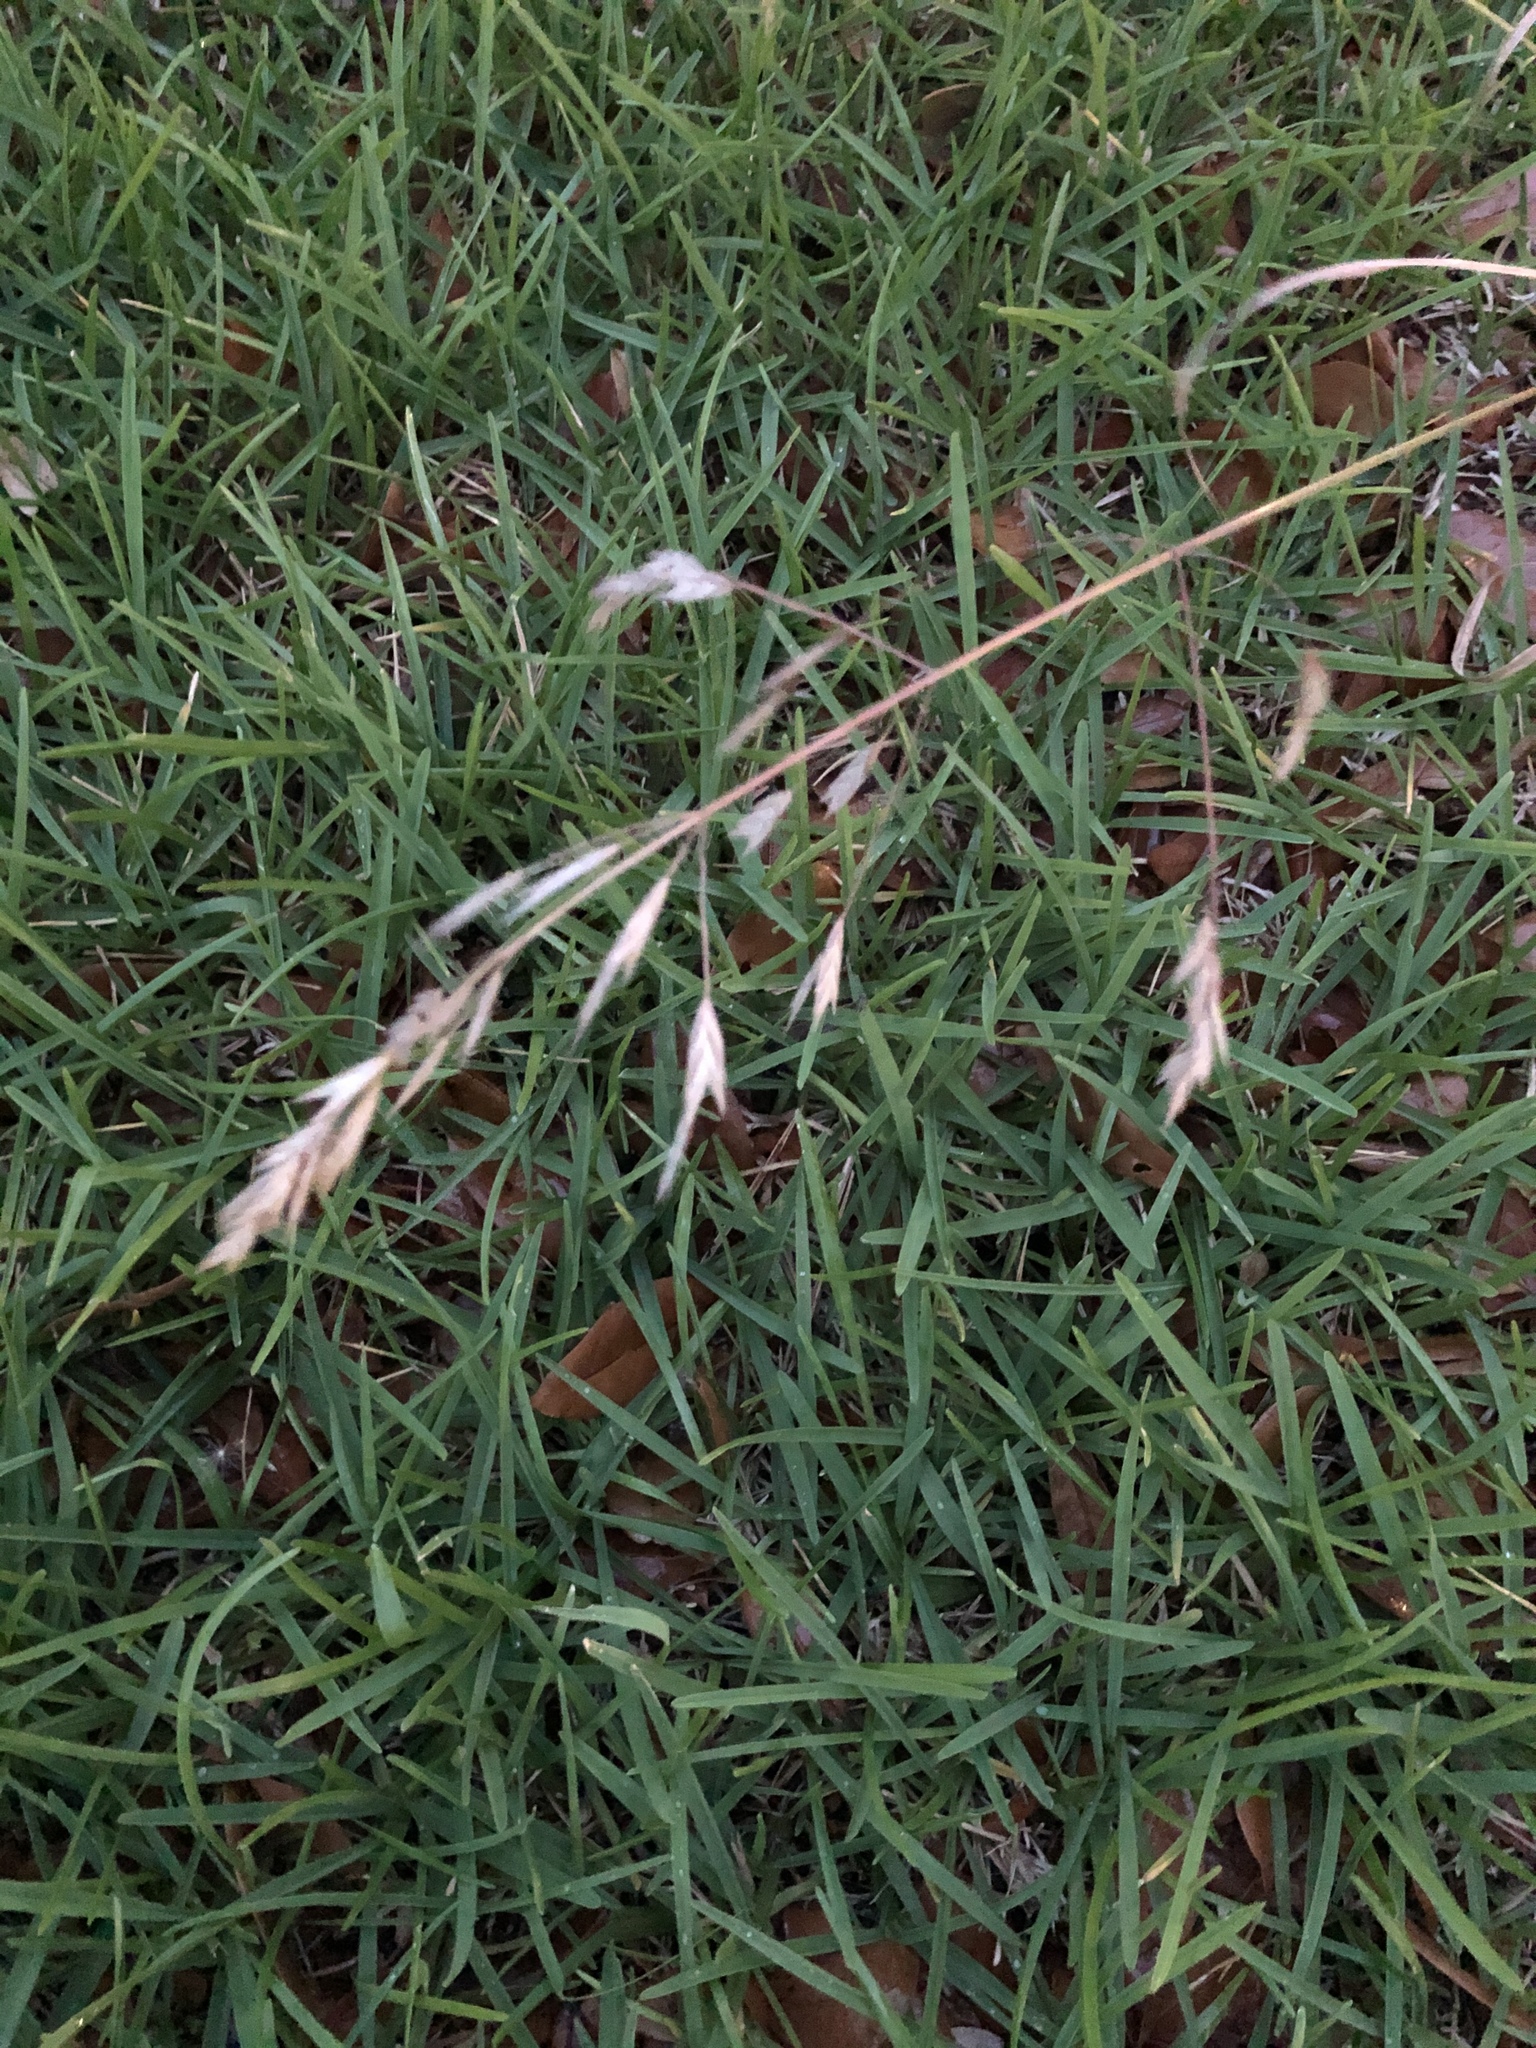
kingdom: Plantae
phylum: Tracheophyta
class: Liliopsida
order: Poales
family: Poaceae
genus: Bromus
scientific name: Bromus catharticus
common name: Rescuegrass
